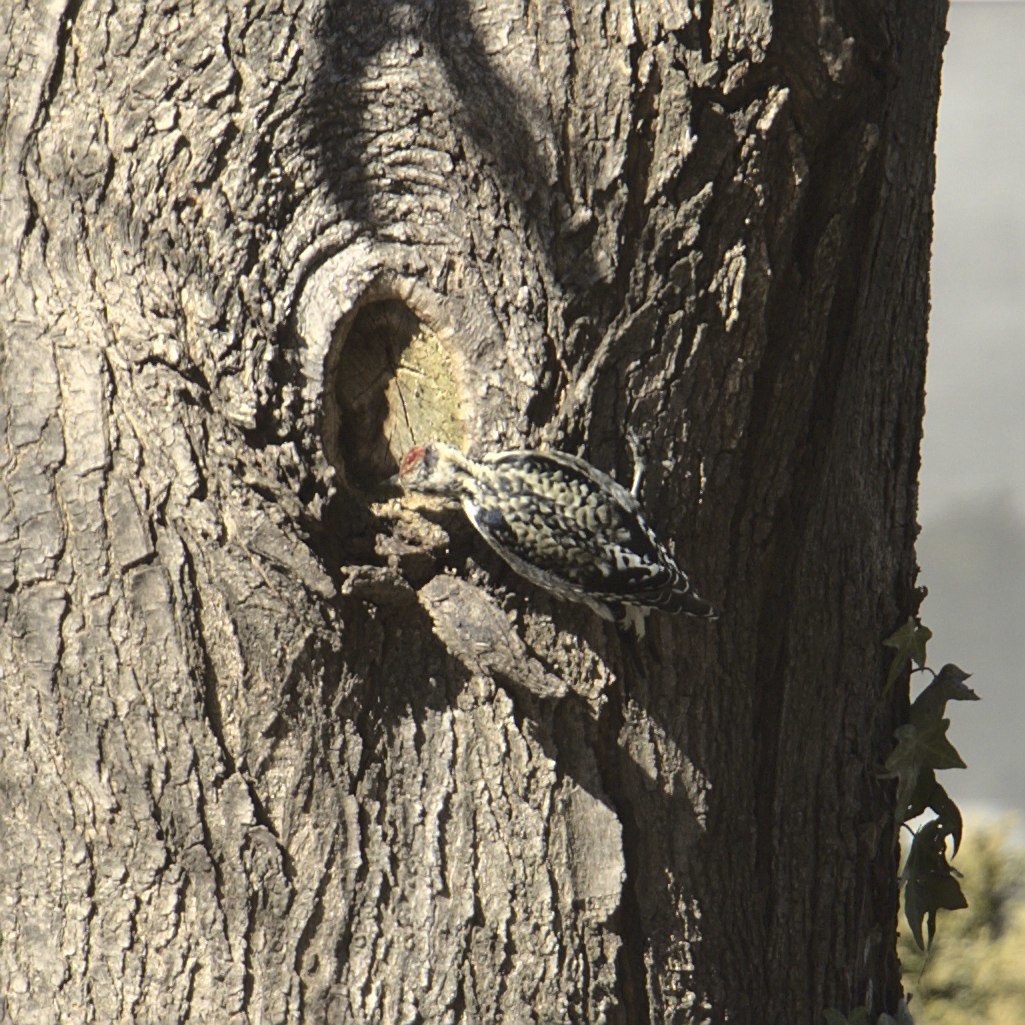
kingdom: Animalia
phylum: Chordata
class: Aves
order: Piciformes
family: Picidae
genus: Sphyrapicus
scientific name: Sphyrapicus varius
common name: Yellow-bellied sapsucker
